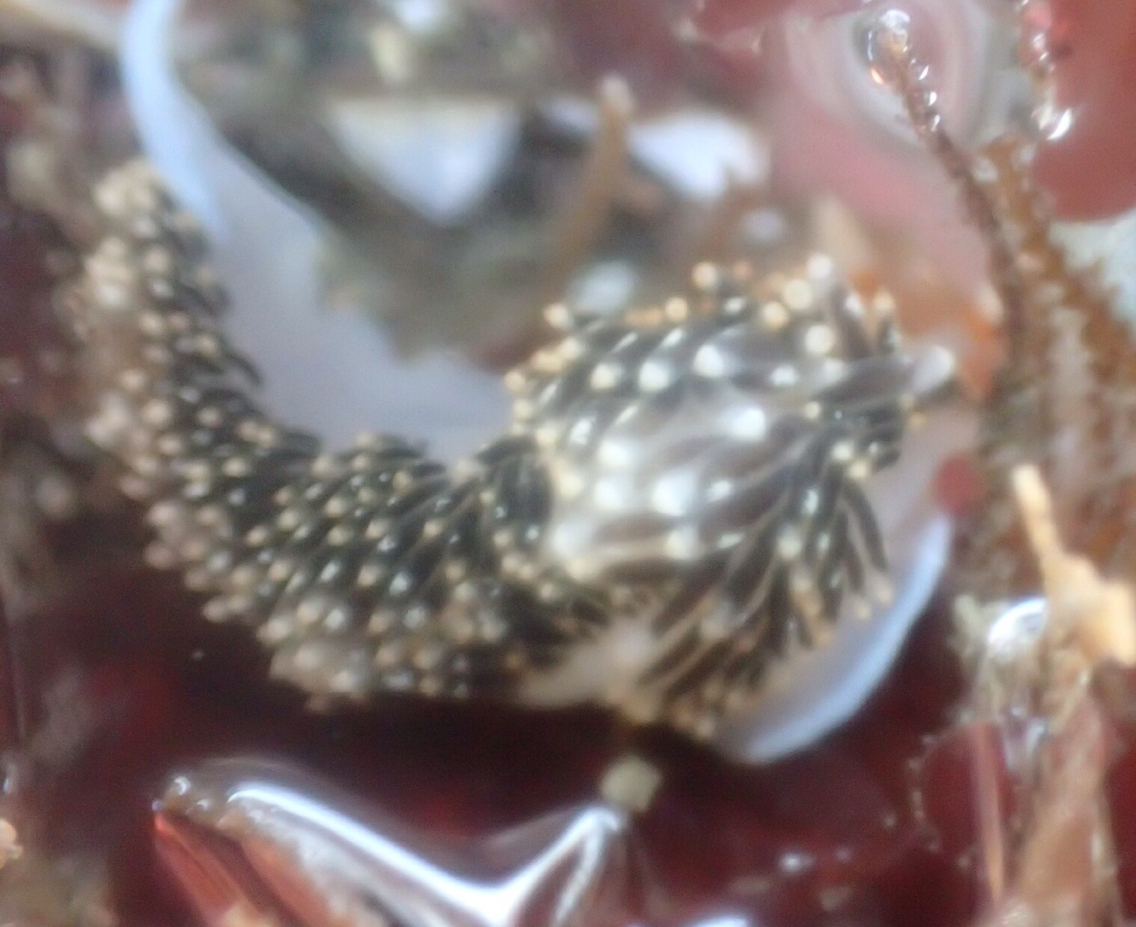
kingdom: Animalia
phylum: Mollusca
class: Gastropoda
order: Nudibranchia
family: Facelinidae
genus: Phidiana
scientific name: Phidiana hiltoni
